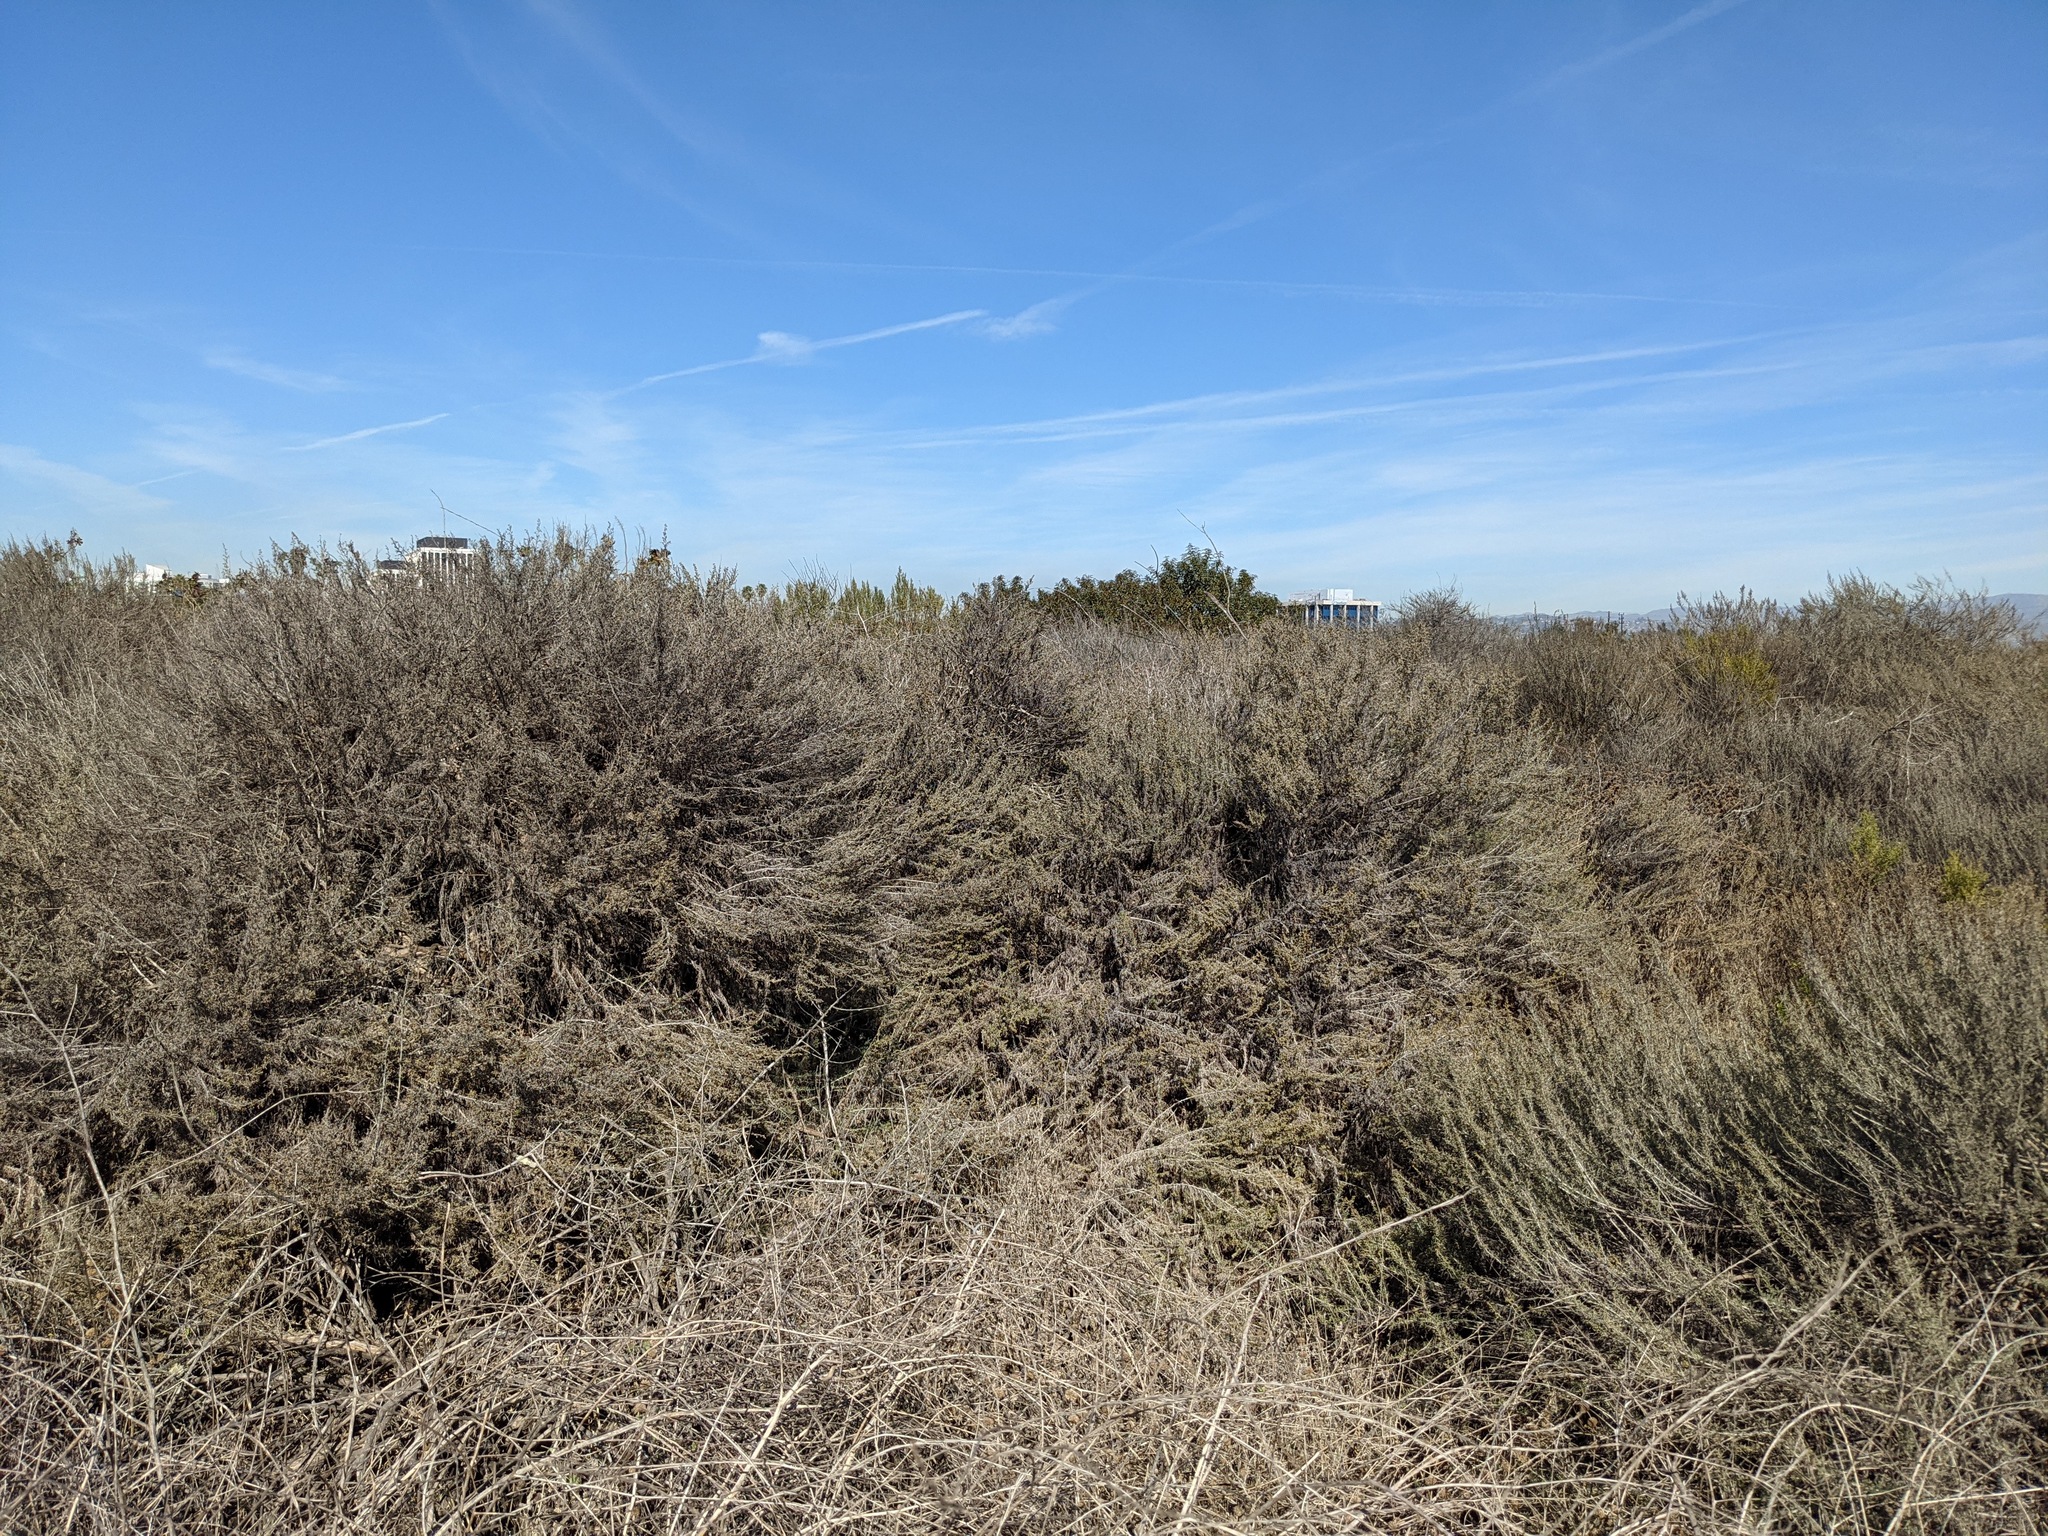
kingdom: Plantae
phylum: Tracheophyta
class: Magnoliopsida
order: Asterales
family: Asteraceae
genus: Artemisia
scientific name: Artemisia californica
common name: California sagebrush
